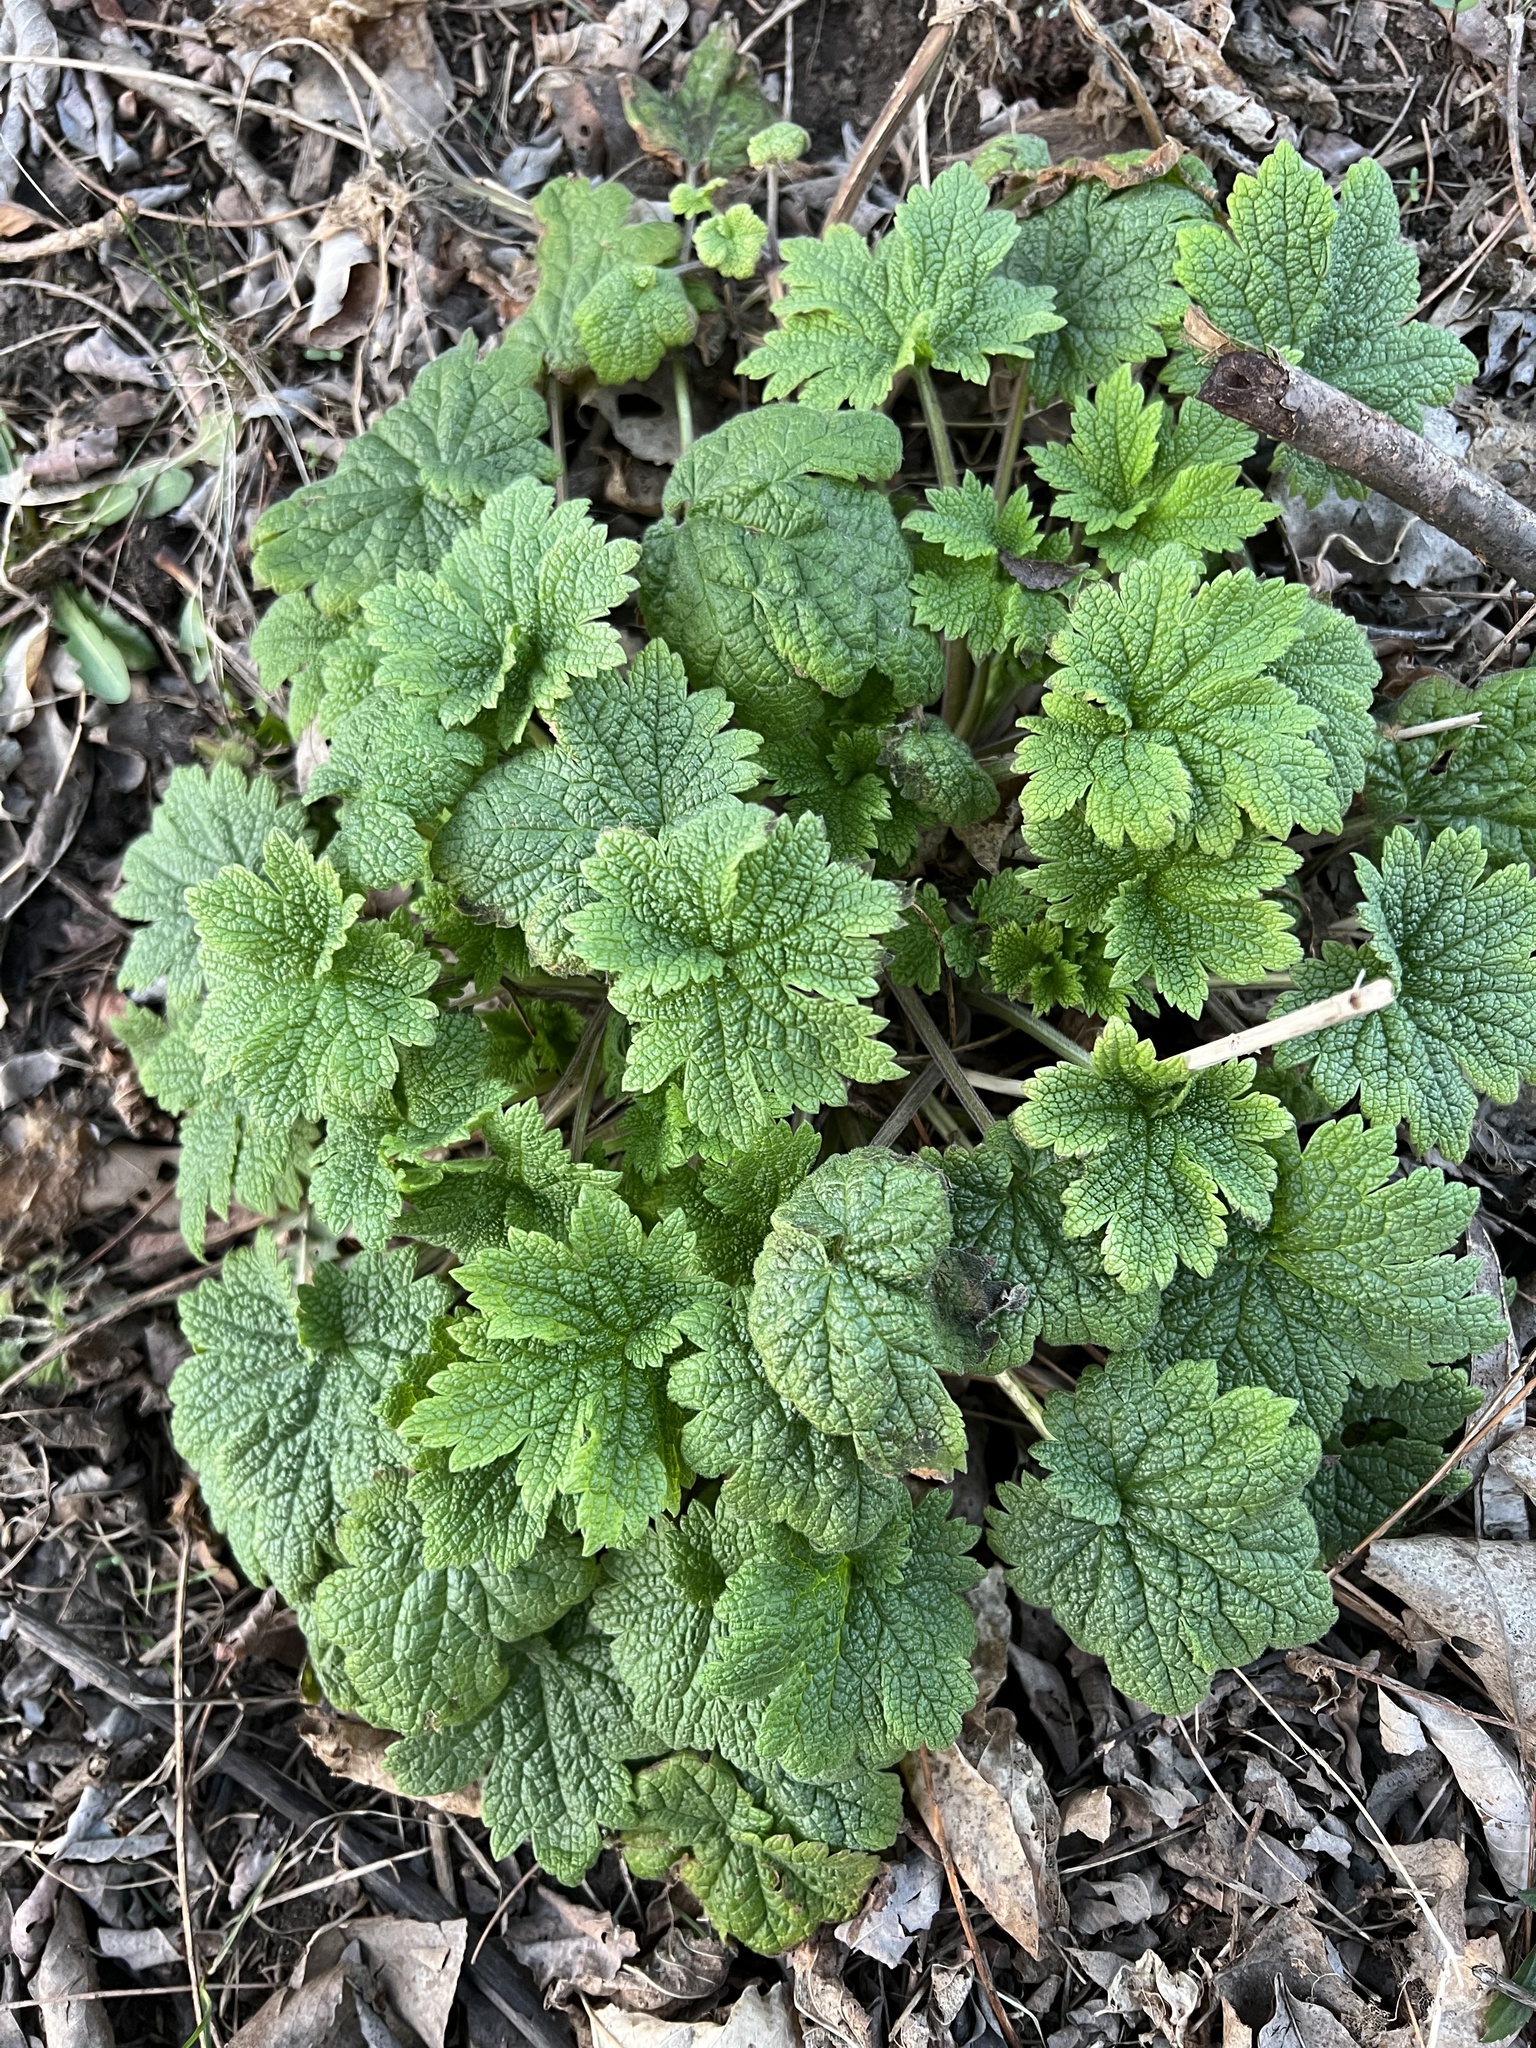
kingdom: Plantae
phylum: Tracheophyta
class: Magnoliopsida
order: Lamiales
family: Lamiaceae
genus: Leonurus
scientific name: Leonurus cardiaca
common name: Motherwort
